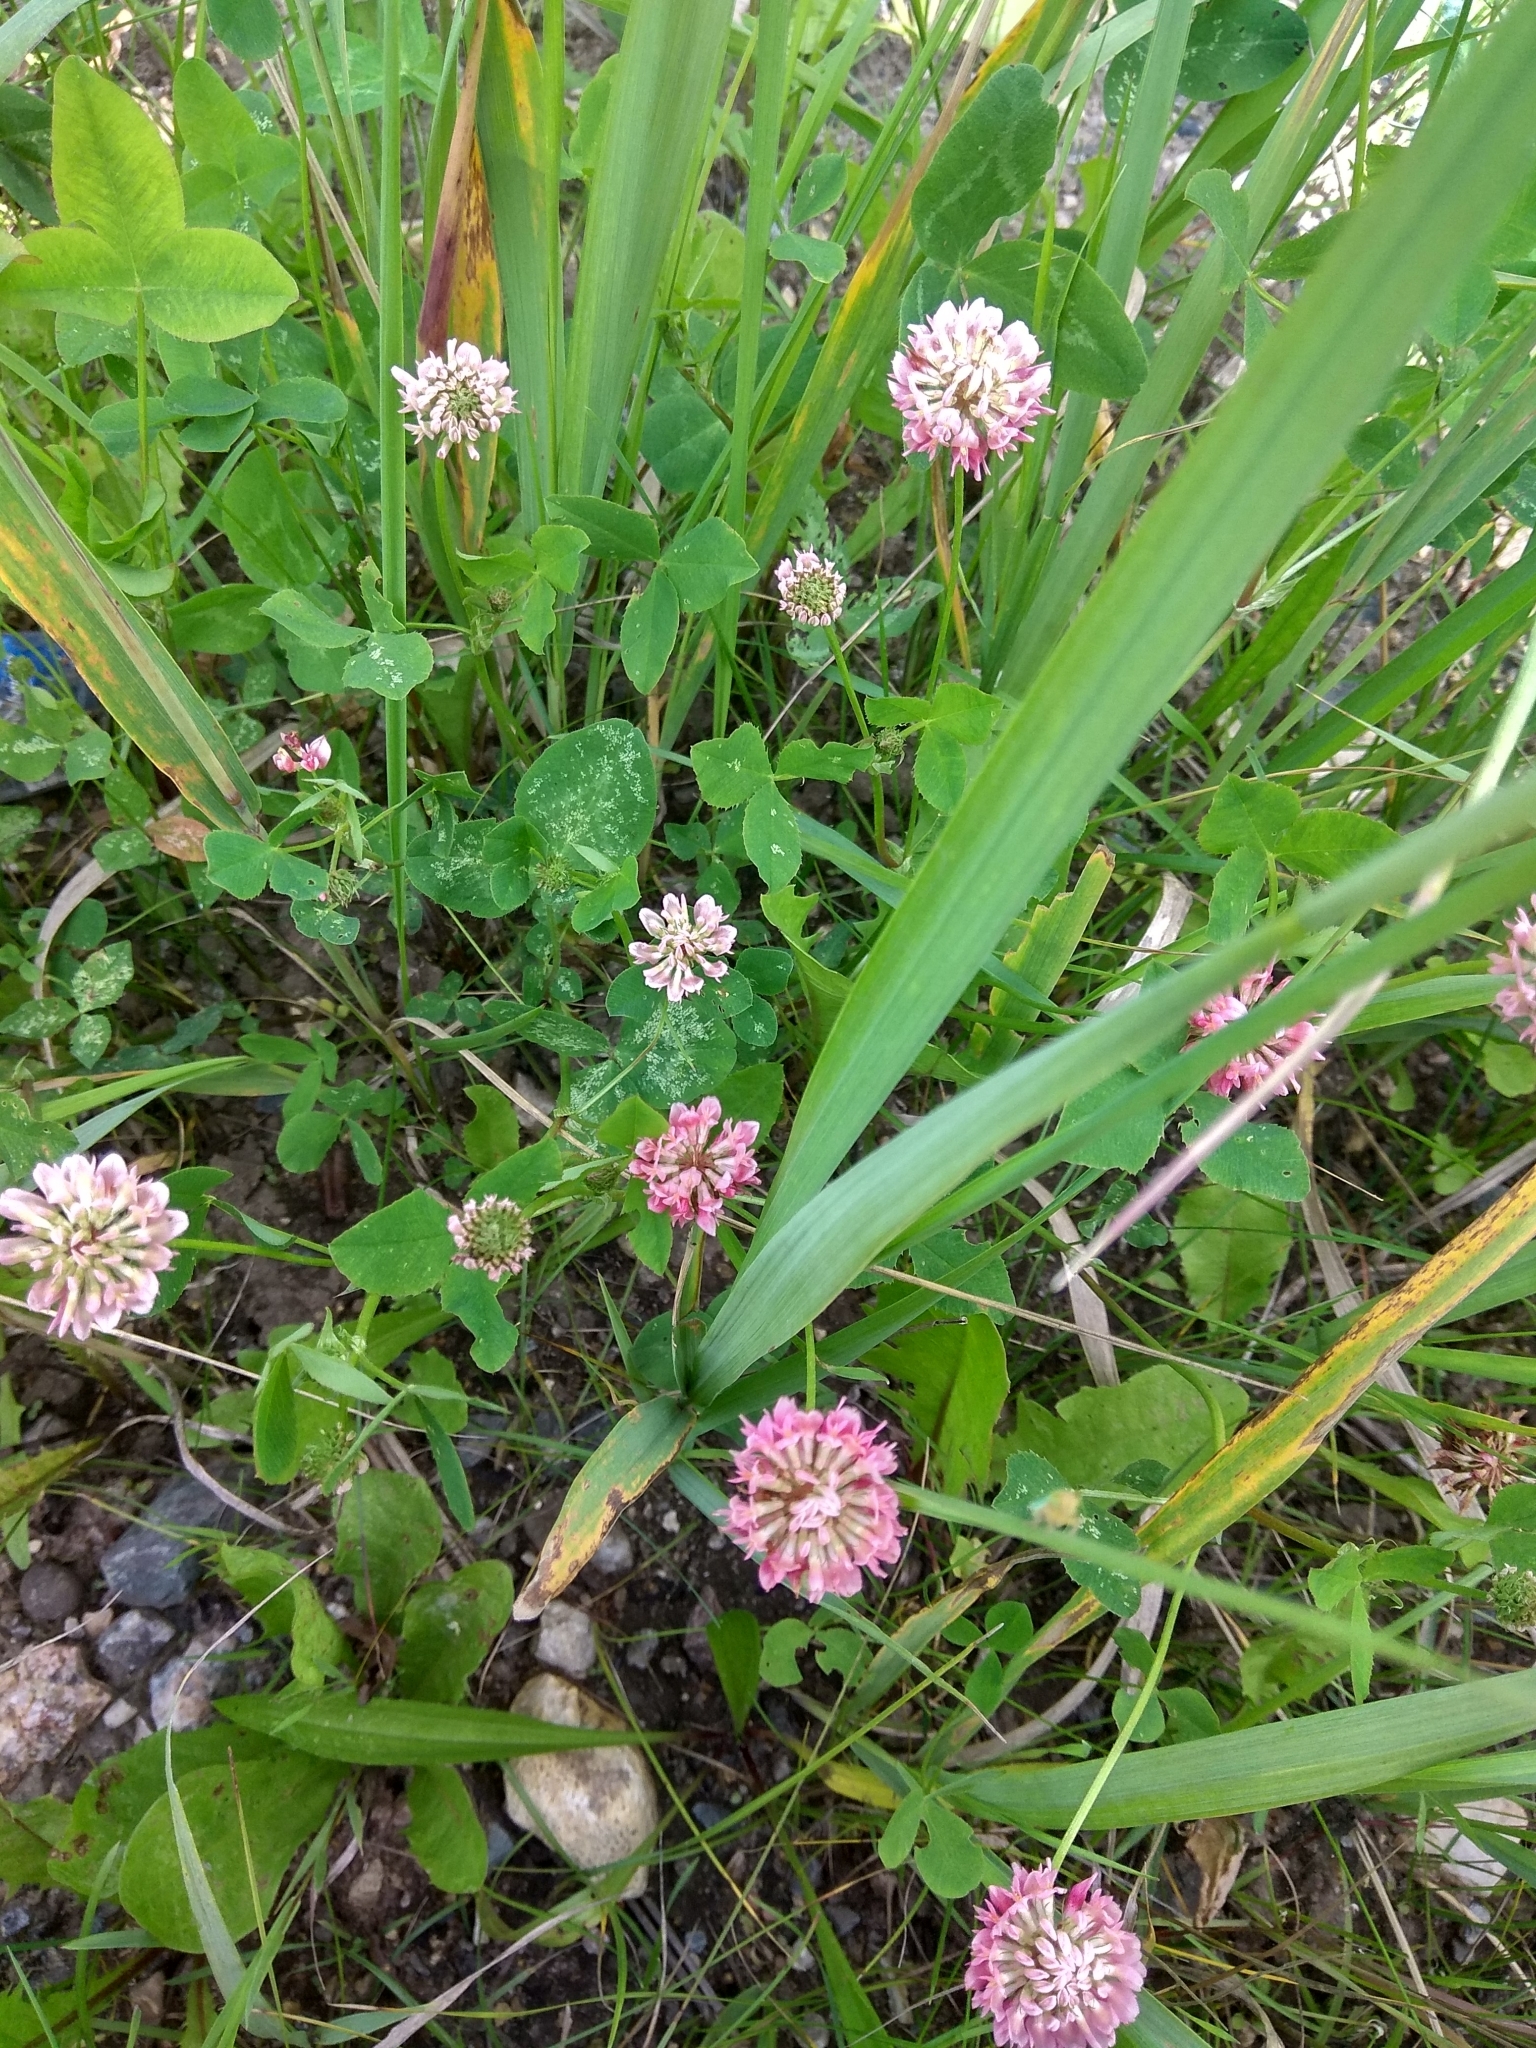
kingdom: Plantae
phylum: Tracheophyta
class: Magnoliopsida
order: Fabales
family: Fabaceae
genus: Trifolium
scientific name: Trifolium hybridum
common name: Alsike clover
